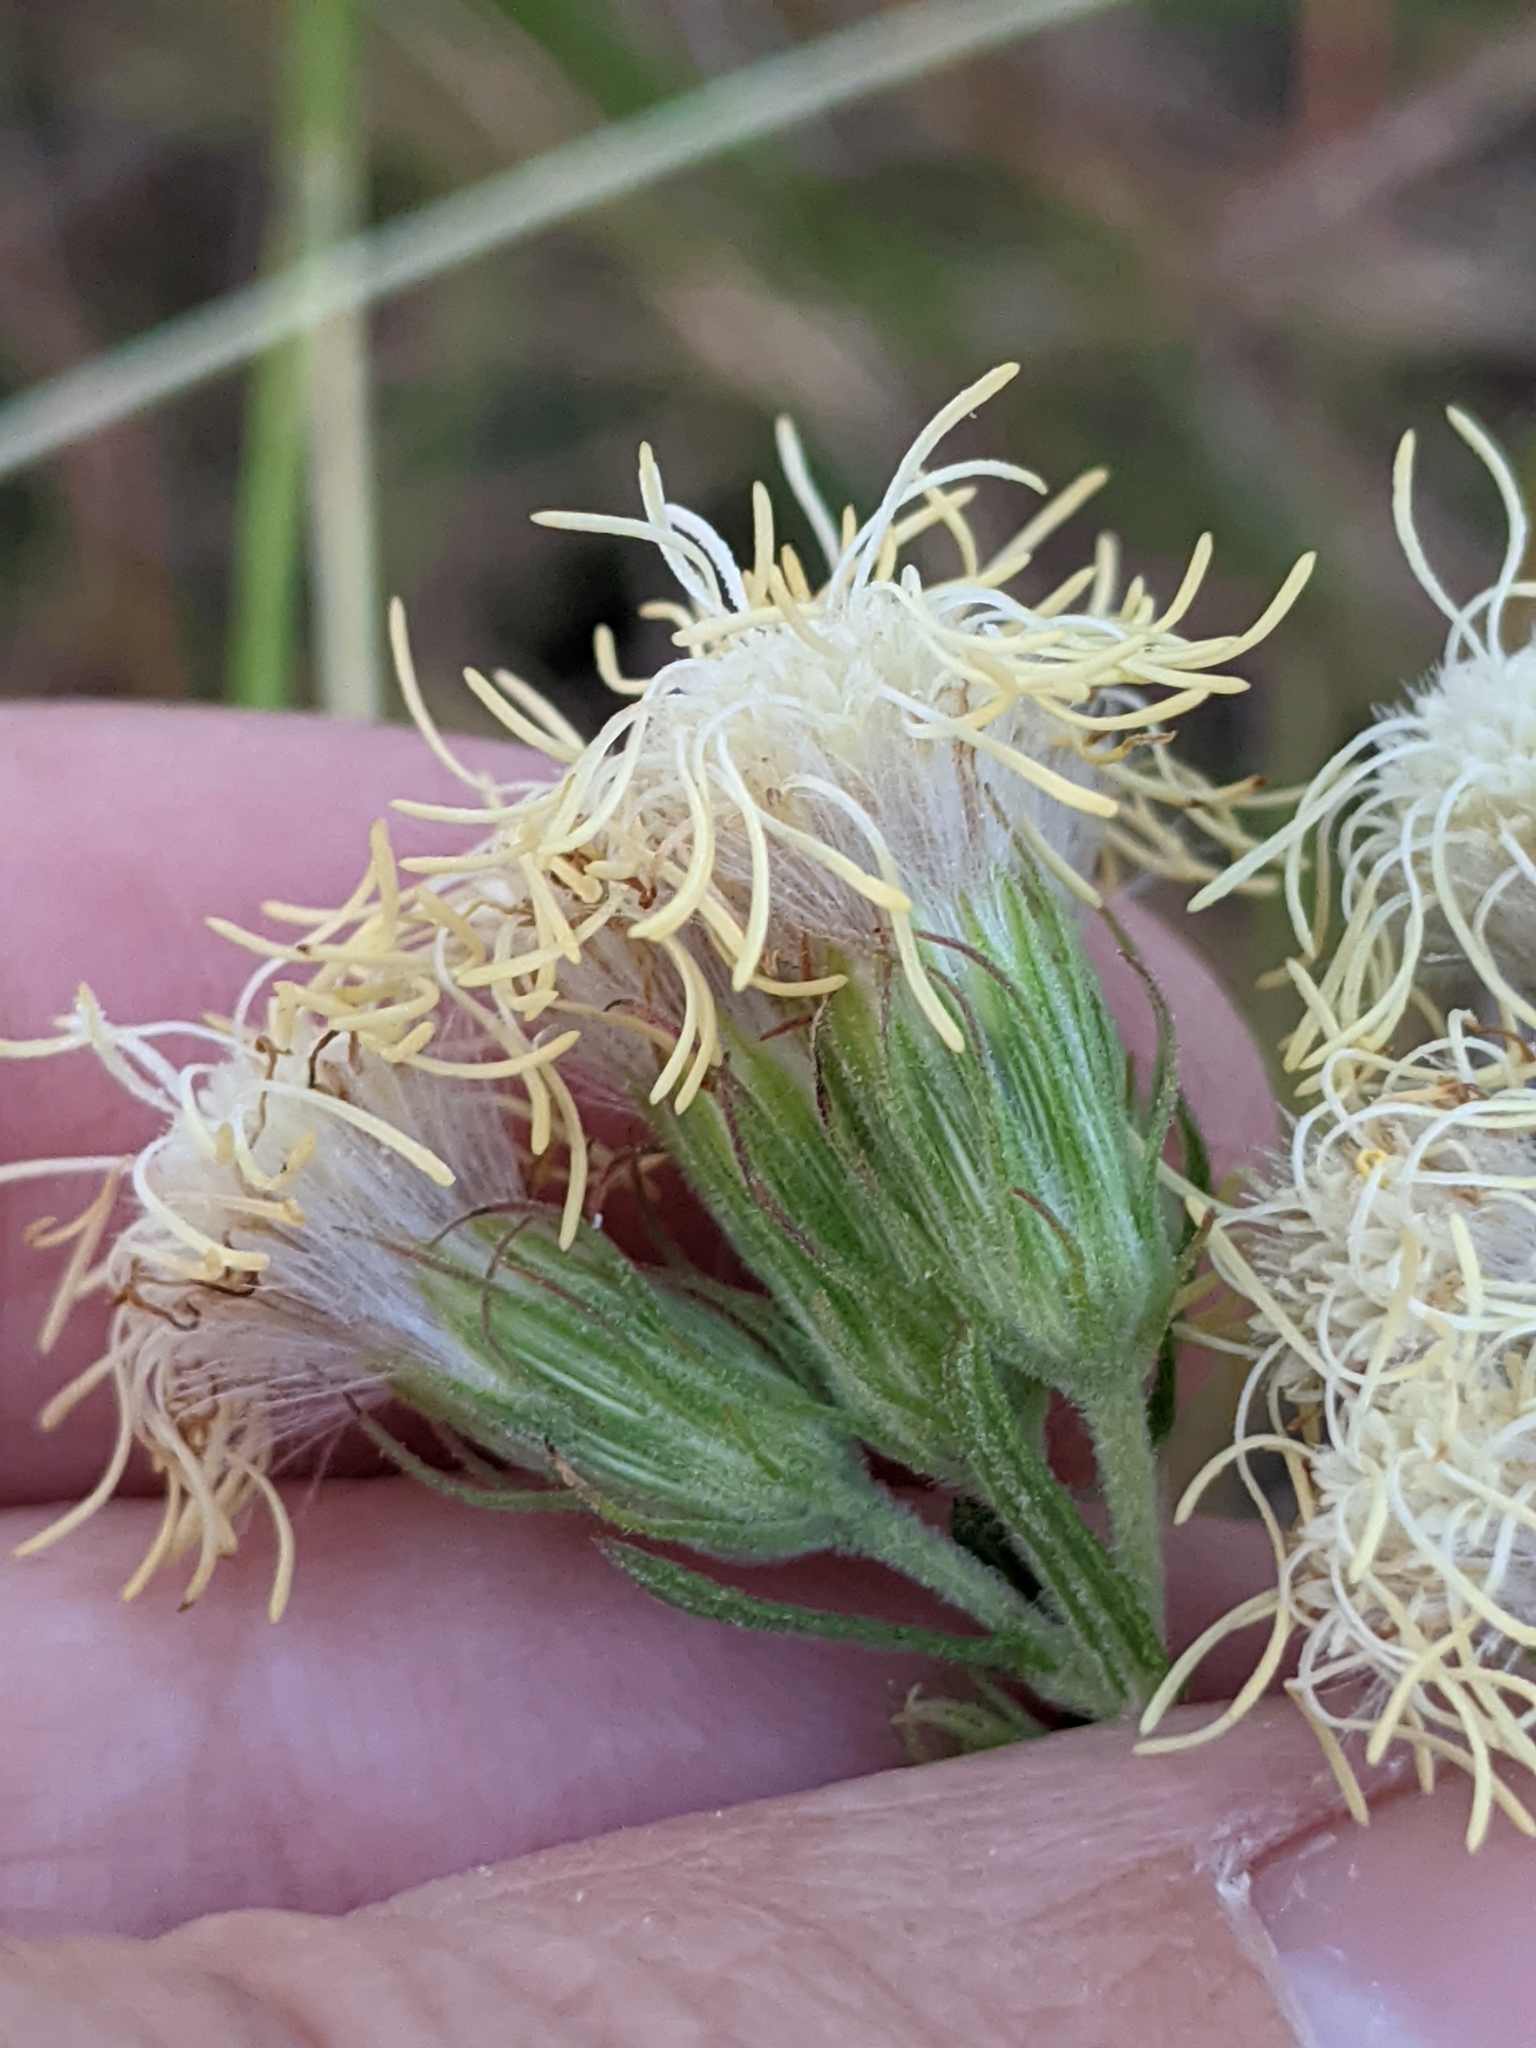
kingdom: Plantae
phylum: Tracheophyta
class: Magnoliopsida
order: Asterales
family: Asteraceae
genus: Brickellia
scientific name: Brickellia eupatorioides
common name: False boneset
